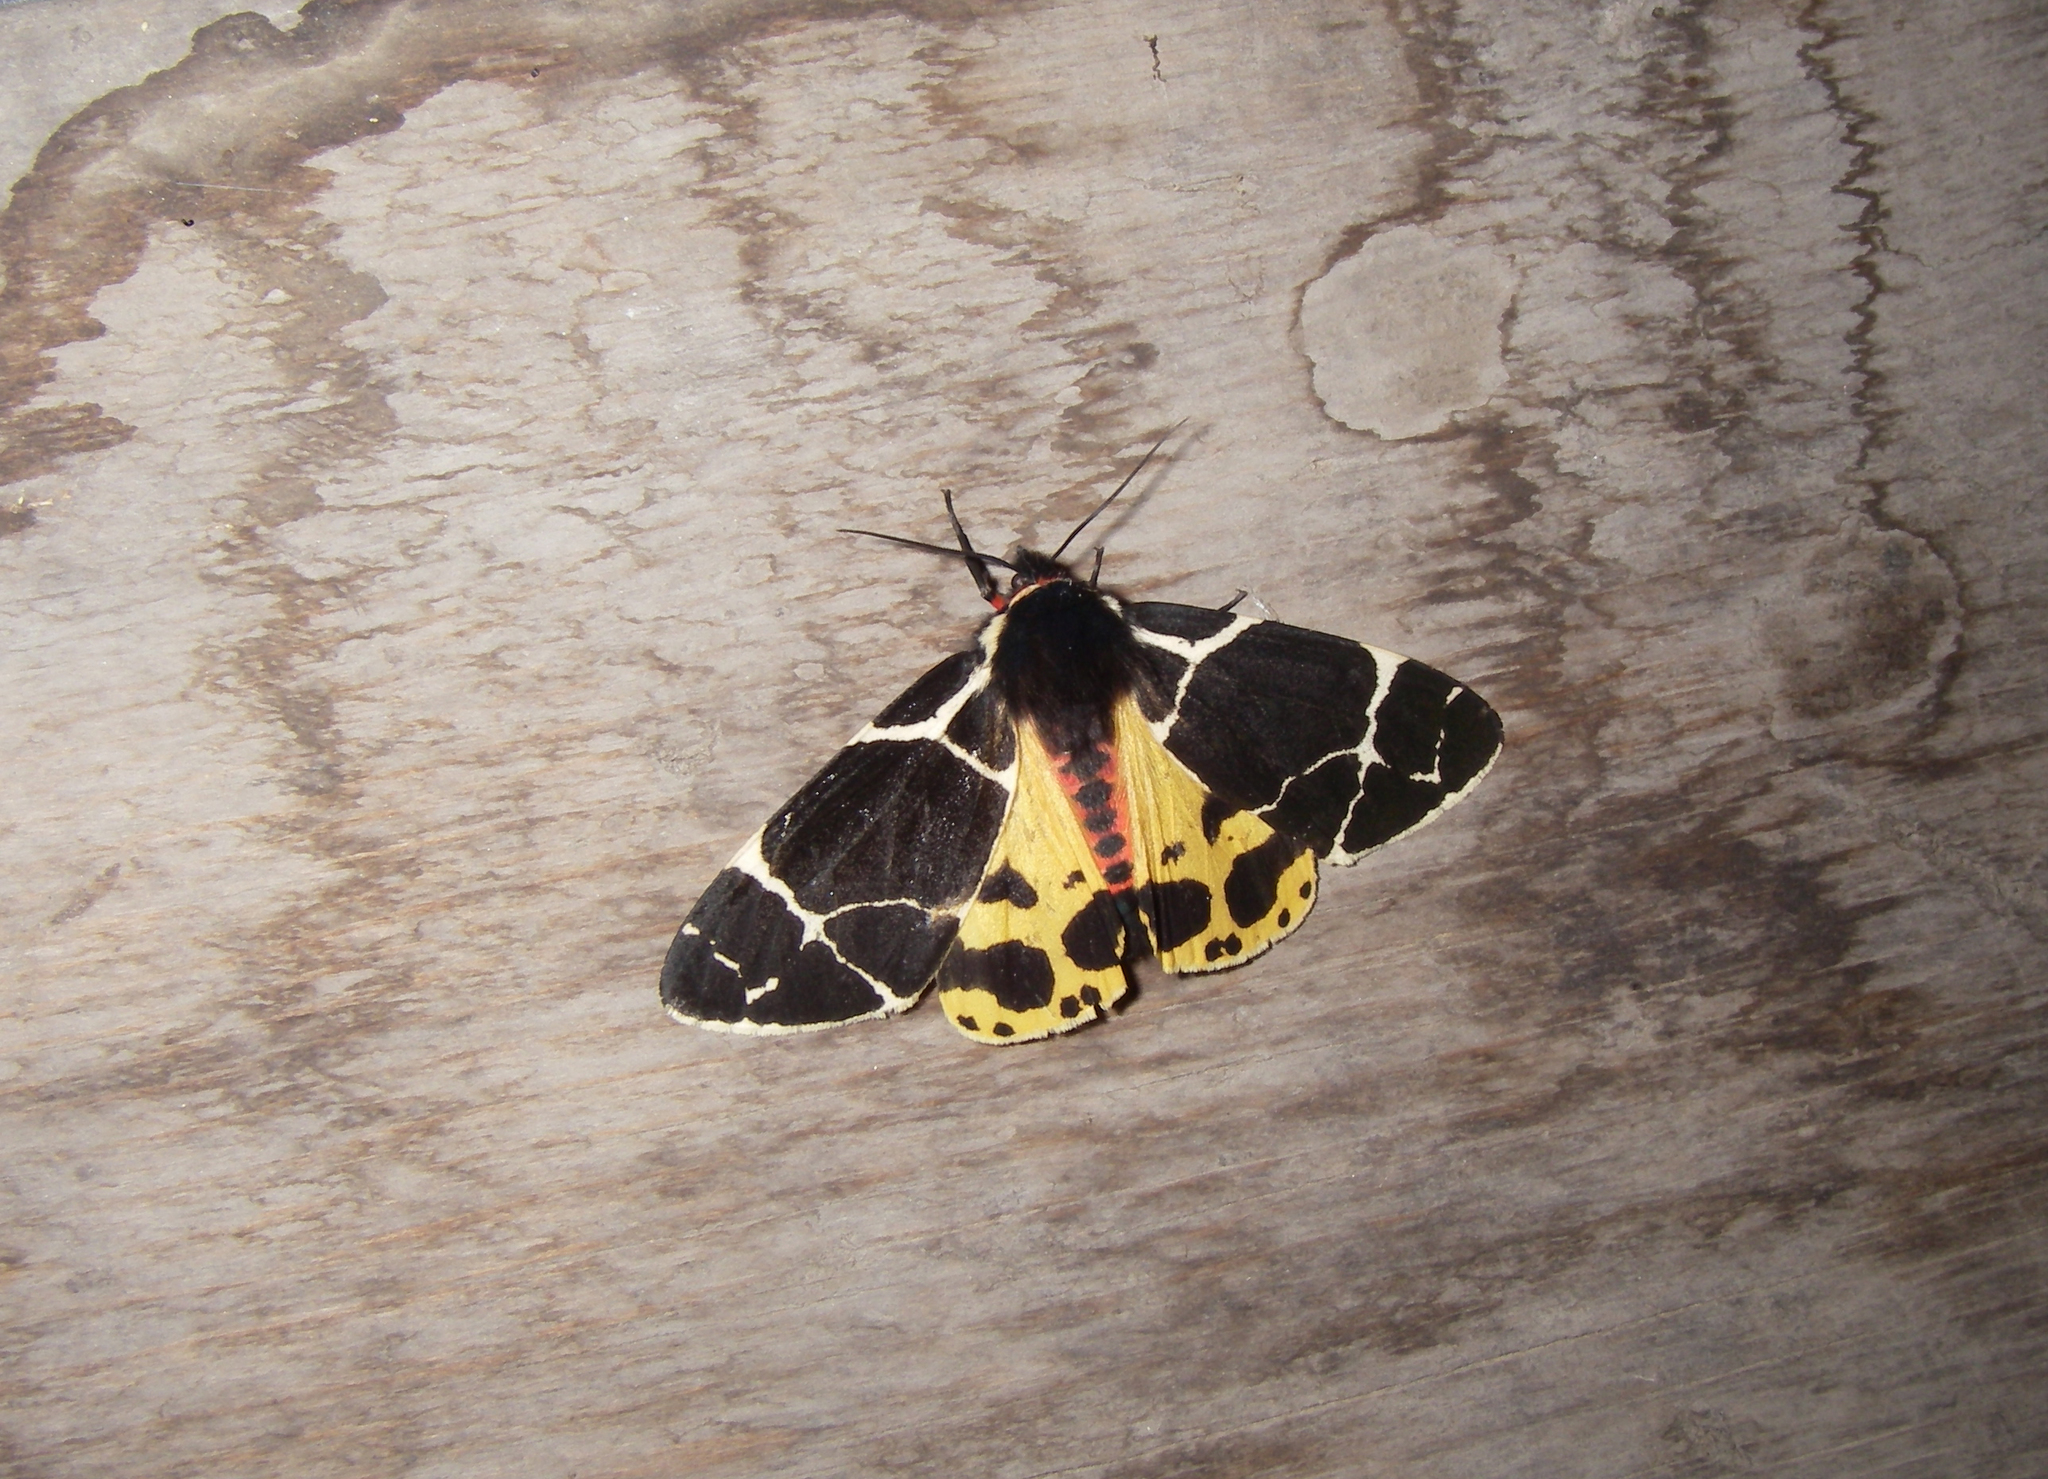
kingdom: Animalia
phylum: Arthropoda
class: Insecta
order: Lepidoptera
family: Erebidae
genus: Arctia
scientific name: Arctia flavia
